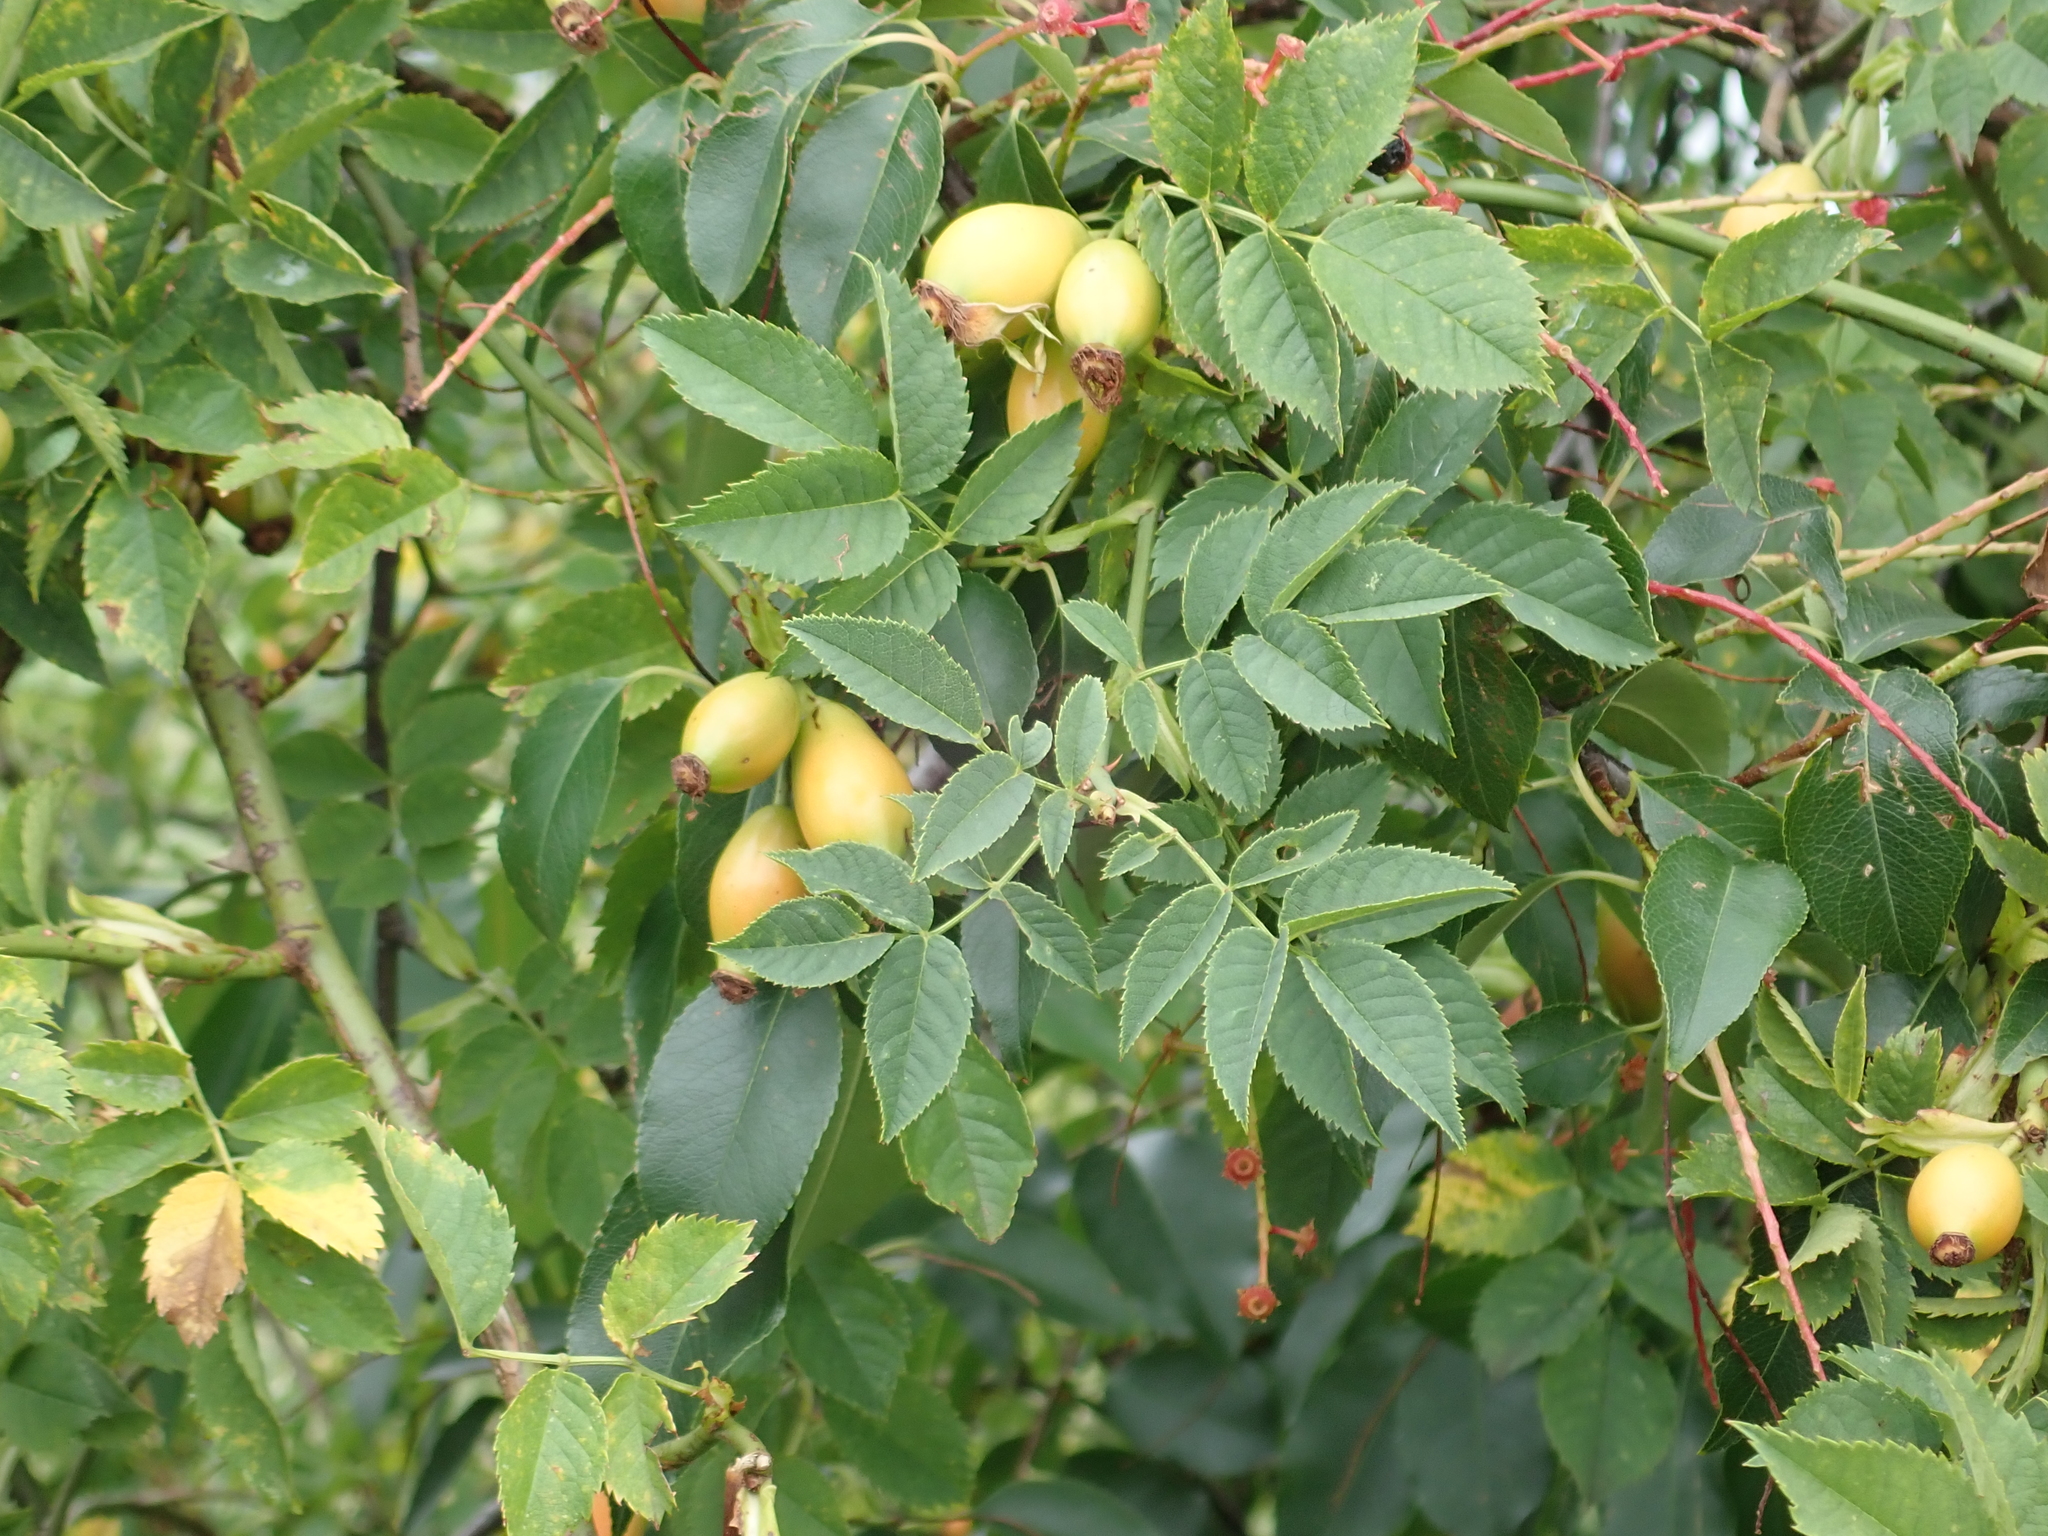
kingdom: Plantae
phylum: Tracheophyta
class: Magnoliopsida
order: Rosales
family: Rosaceae
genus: Rosa
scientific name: Rosa canina
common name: Dog rose
